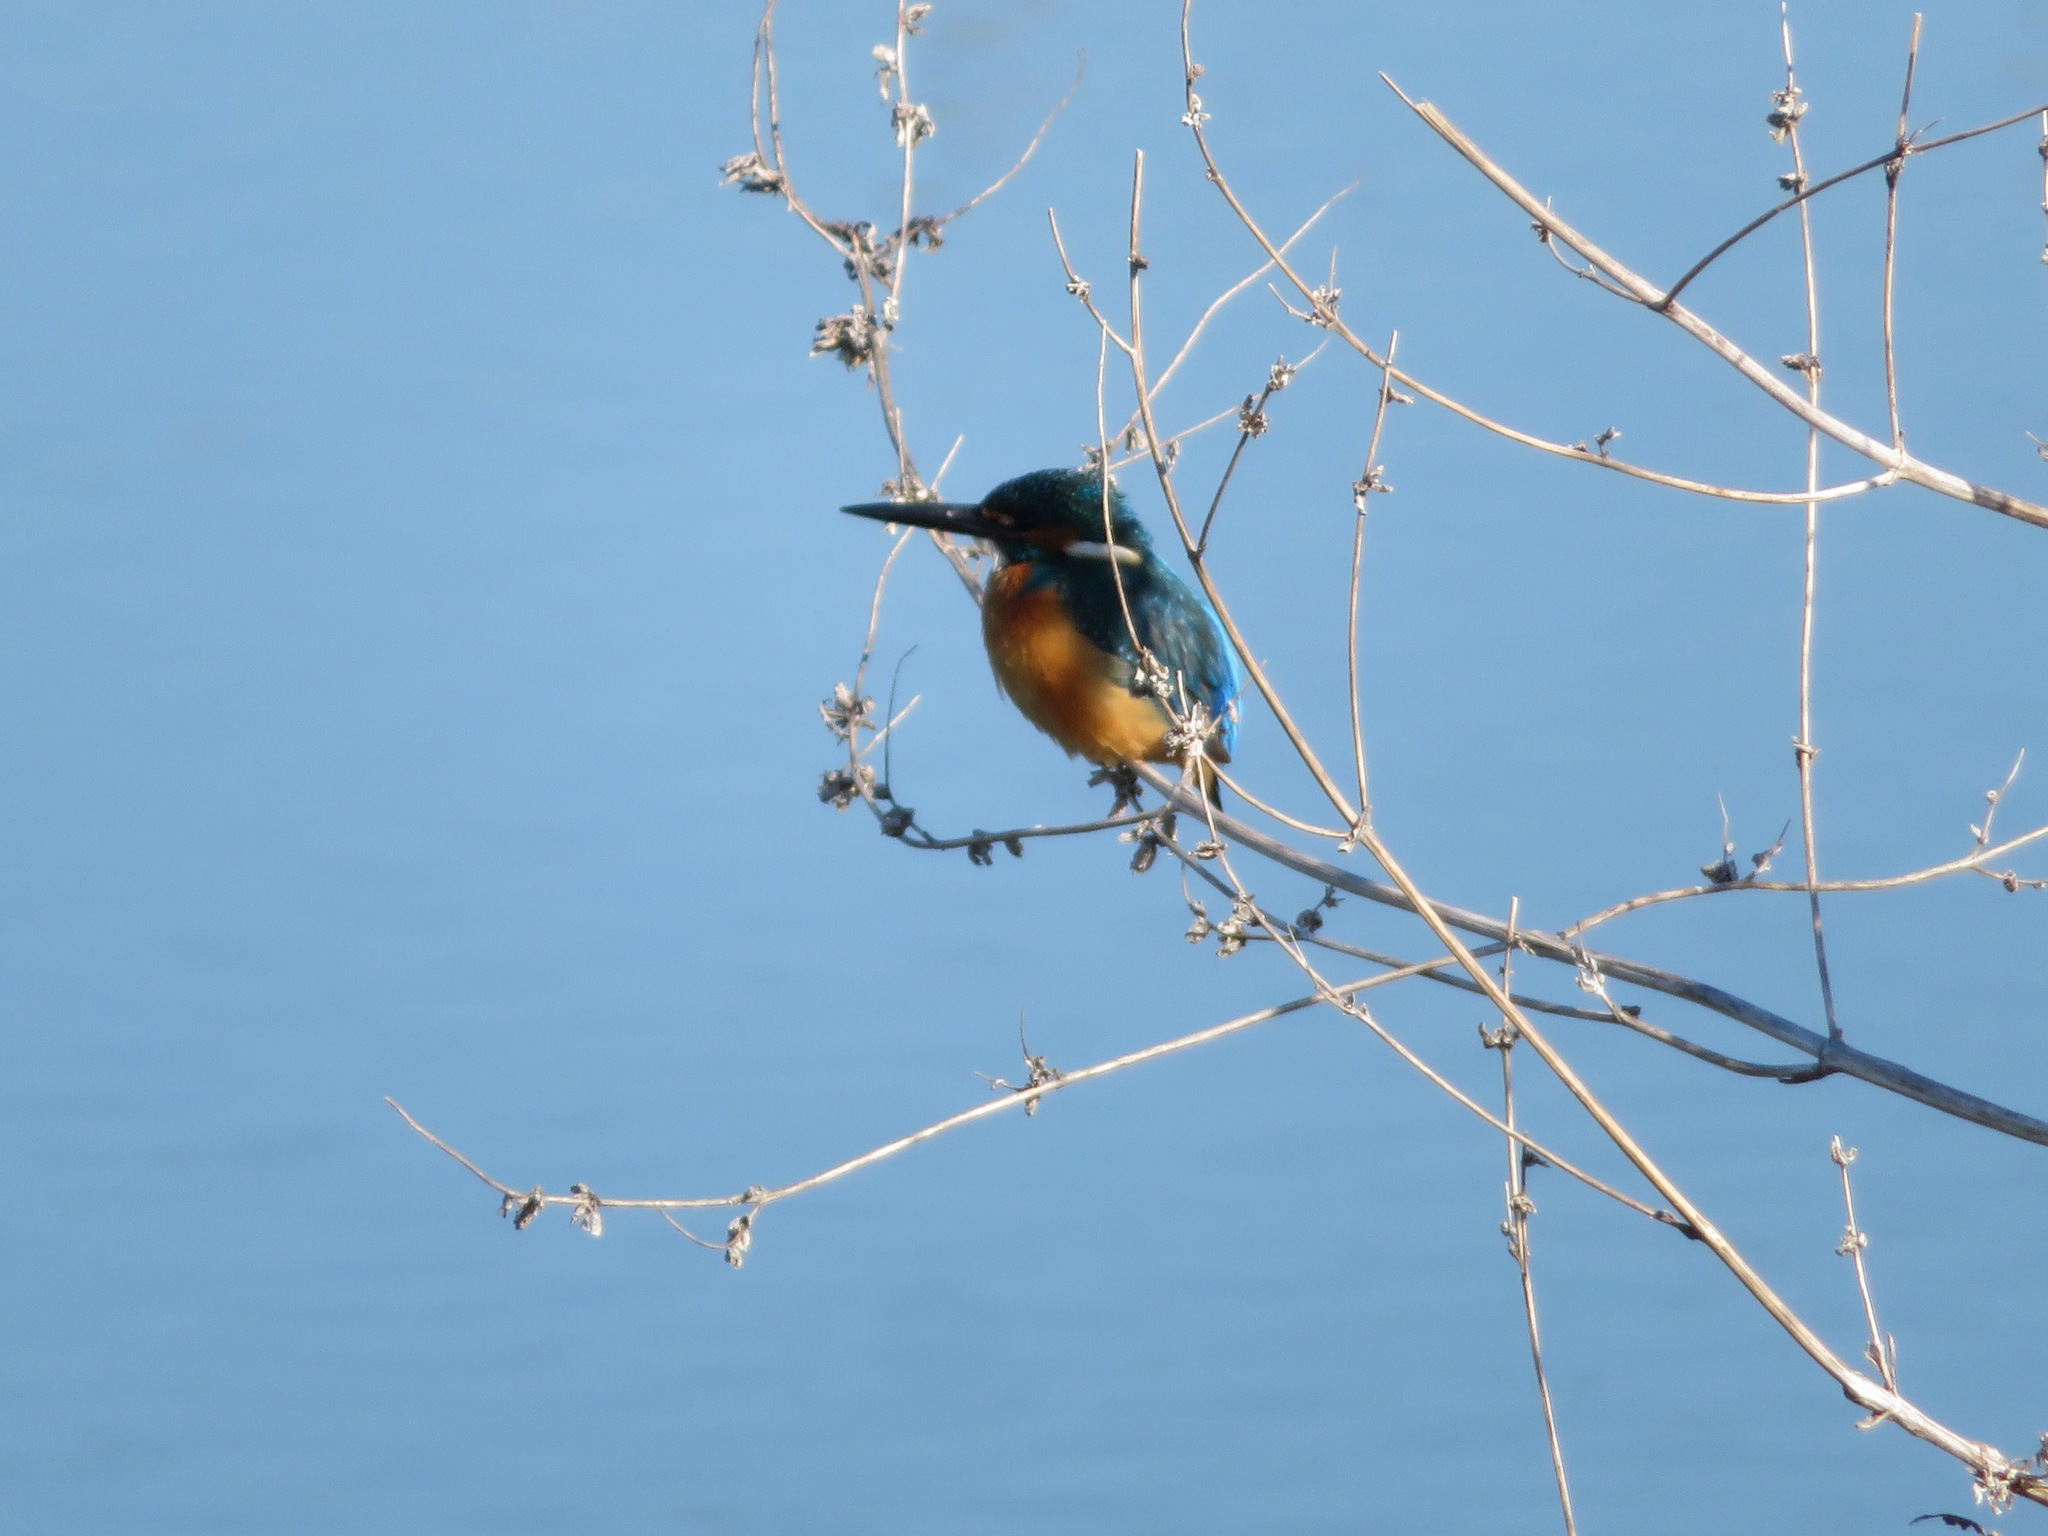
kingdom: Animalia
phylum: Chordata
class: Aves
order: Coraciiformes
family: Alcedinidae
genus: Alcedo
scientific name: Alcedo atthis
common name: Common kingfisher
